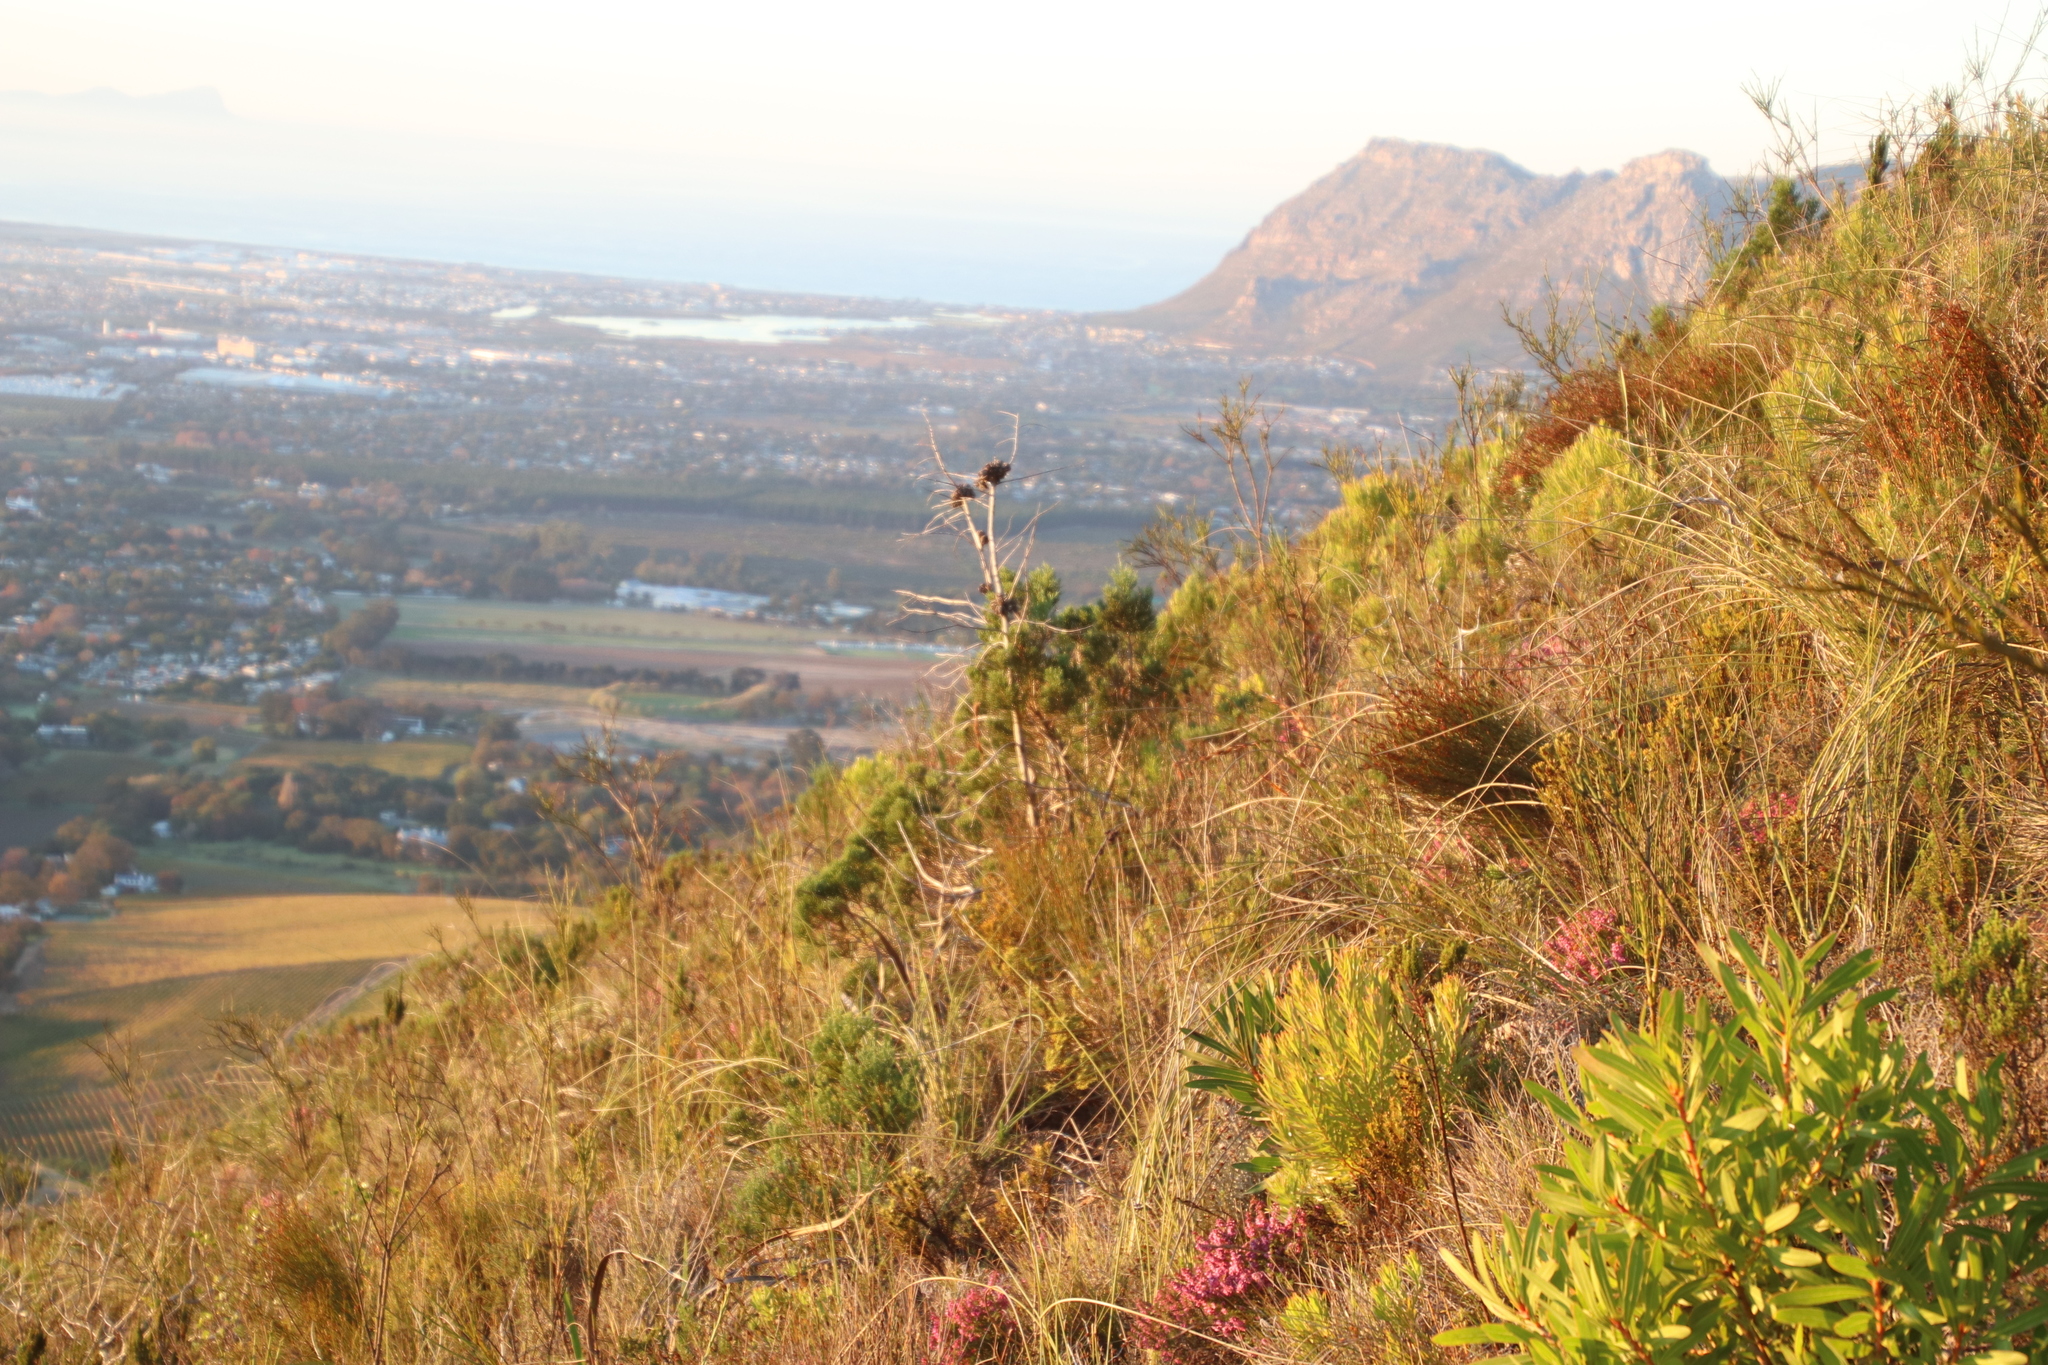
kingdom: Plantae
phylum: Tracheophyta
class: Pinopsida
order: Pinales
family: Cupressaceae
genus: Widdringtonia
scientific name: Widdringtonia nodiflora
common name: Cape cypress
